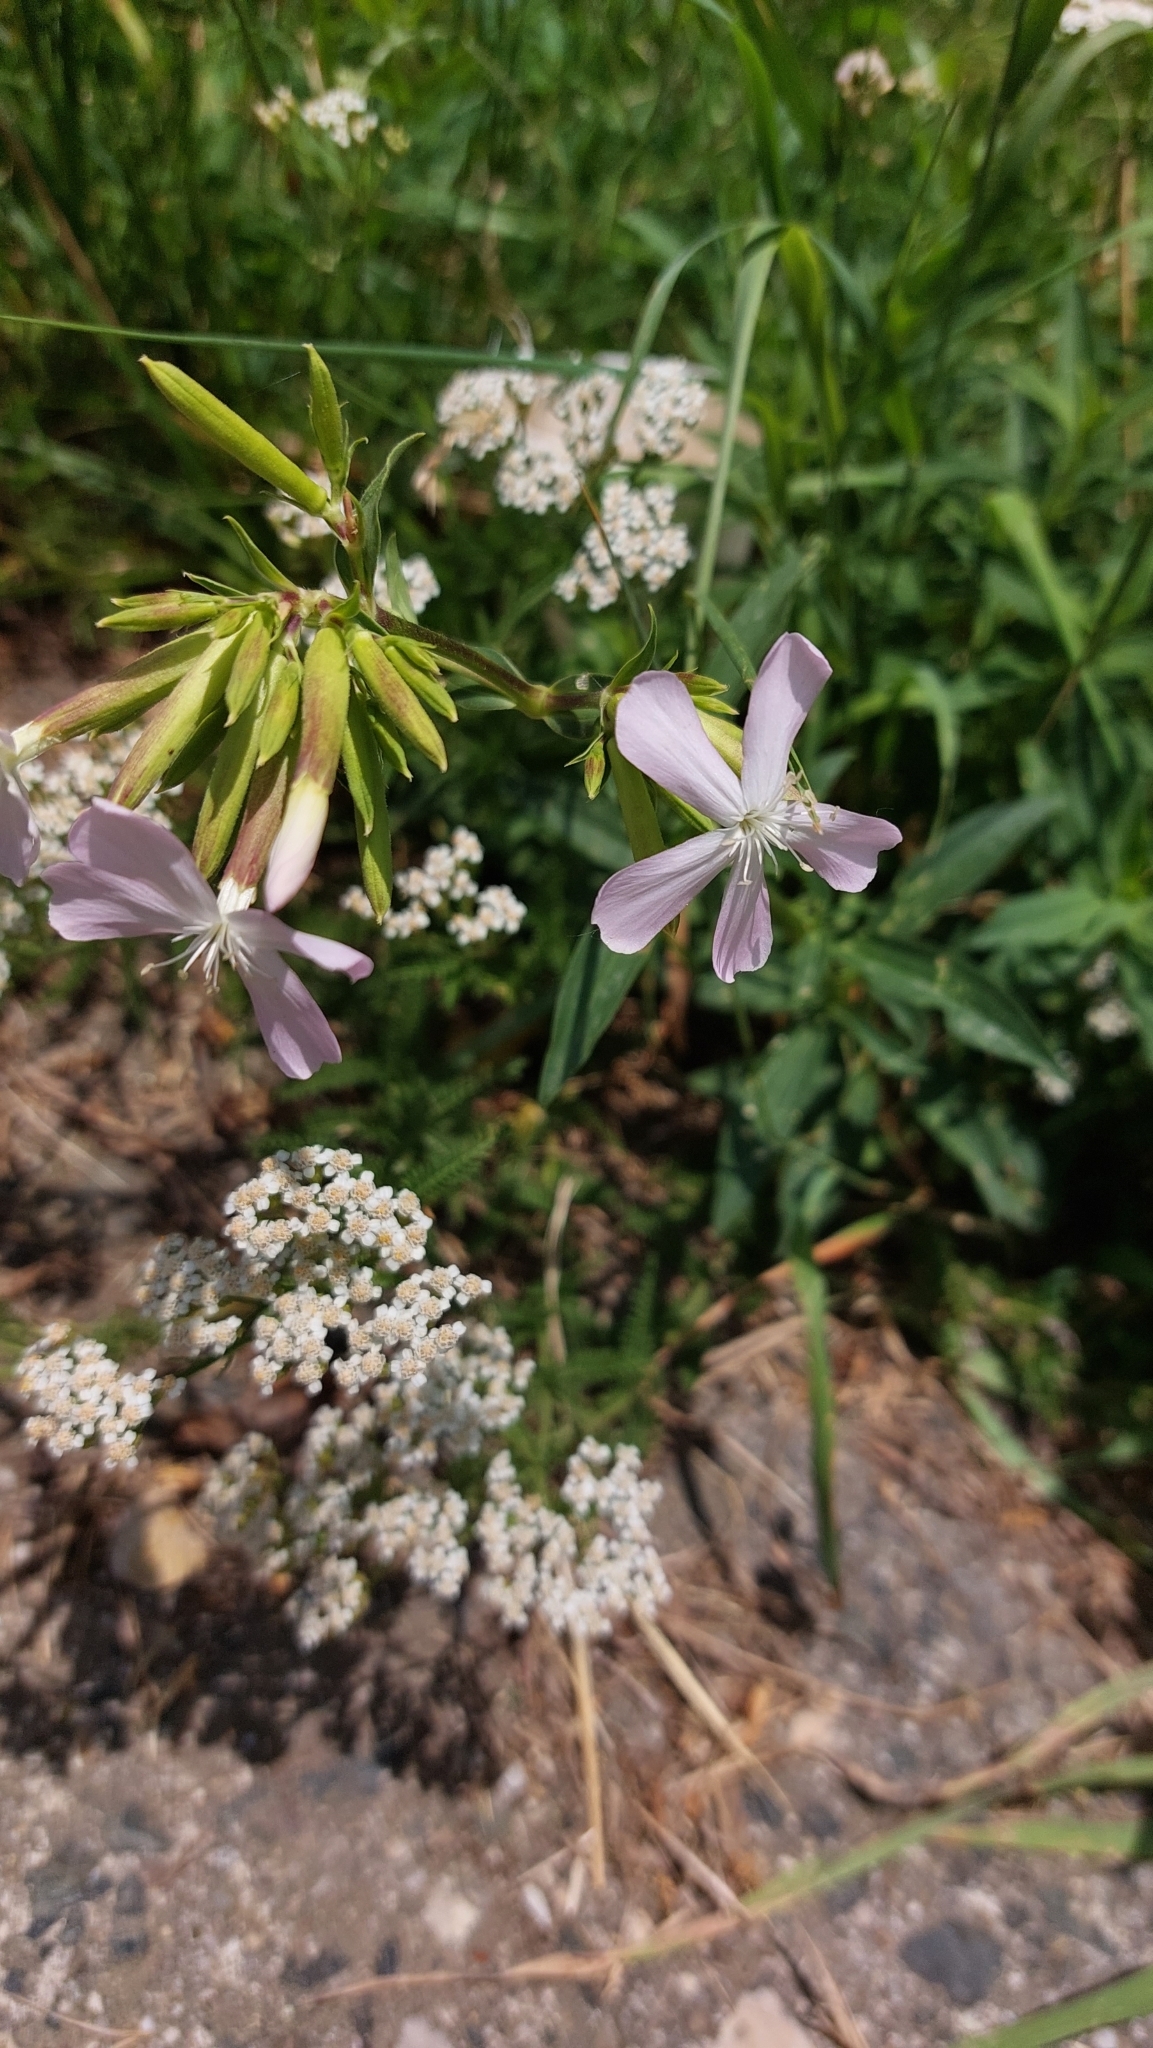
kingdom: Plantae
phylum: Tracheophyta
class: Magnoliopsida
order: Caryophyllales
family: Caryophyllaceae
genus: Saponaria
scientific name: Saponaria officinalis
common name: Soapwort
